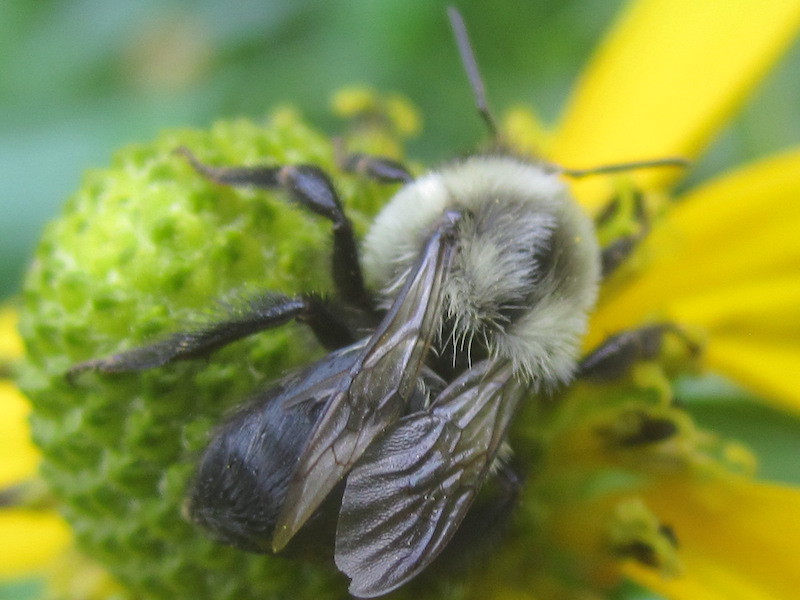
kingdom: Animalia
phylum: Arthropoda
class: Insecta
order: Hymenoptera
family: Apidae
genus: Bombus
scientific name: Bombus impatiens
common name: Common eastern bumble bee
